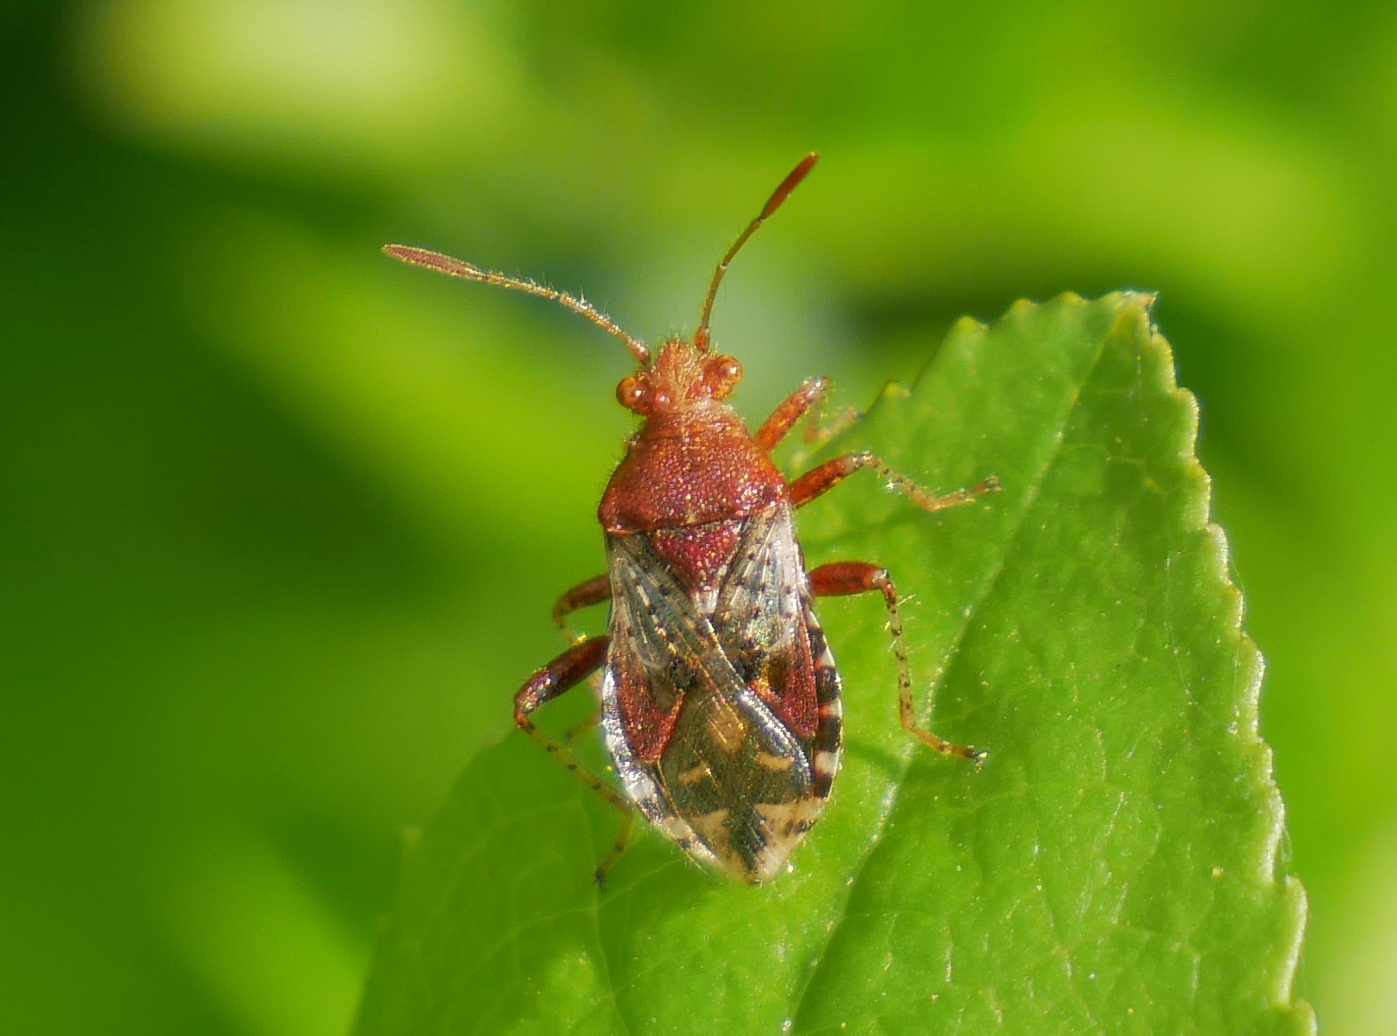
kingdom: Animalia
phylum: Arthropoda
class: Insecta
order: Hemiptera
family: Rhopalidae
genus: Rhopalus
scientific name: Rhopalus subrufus
